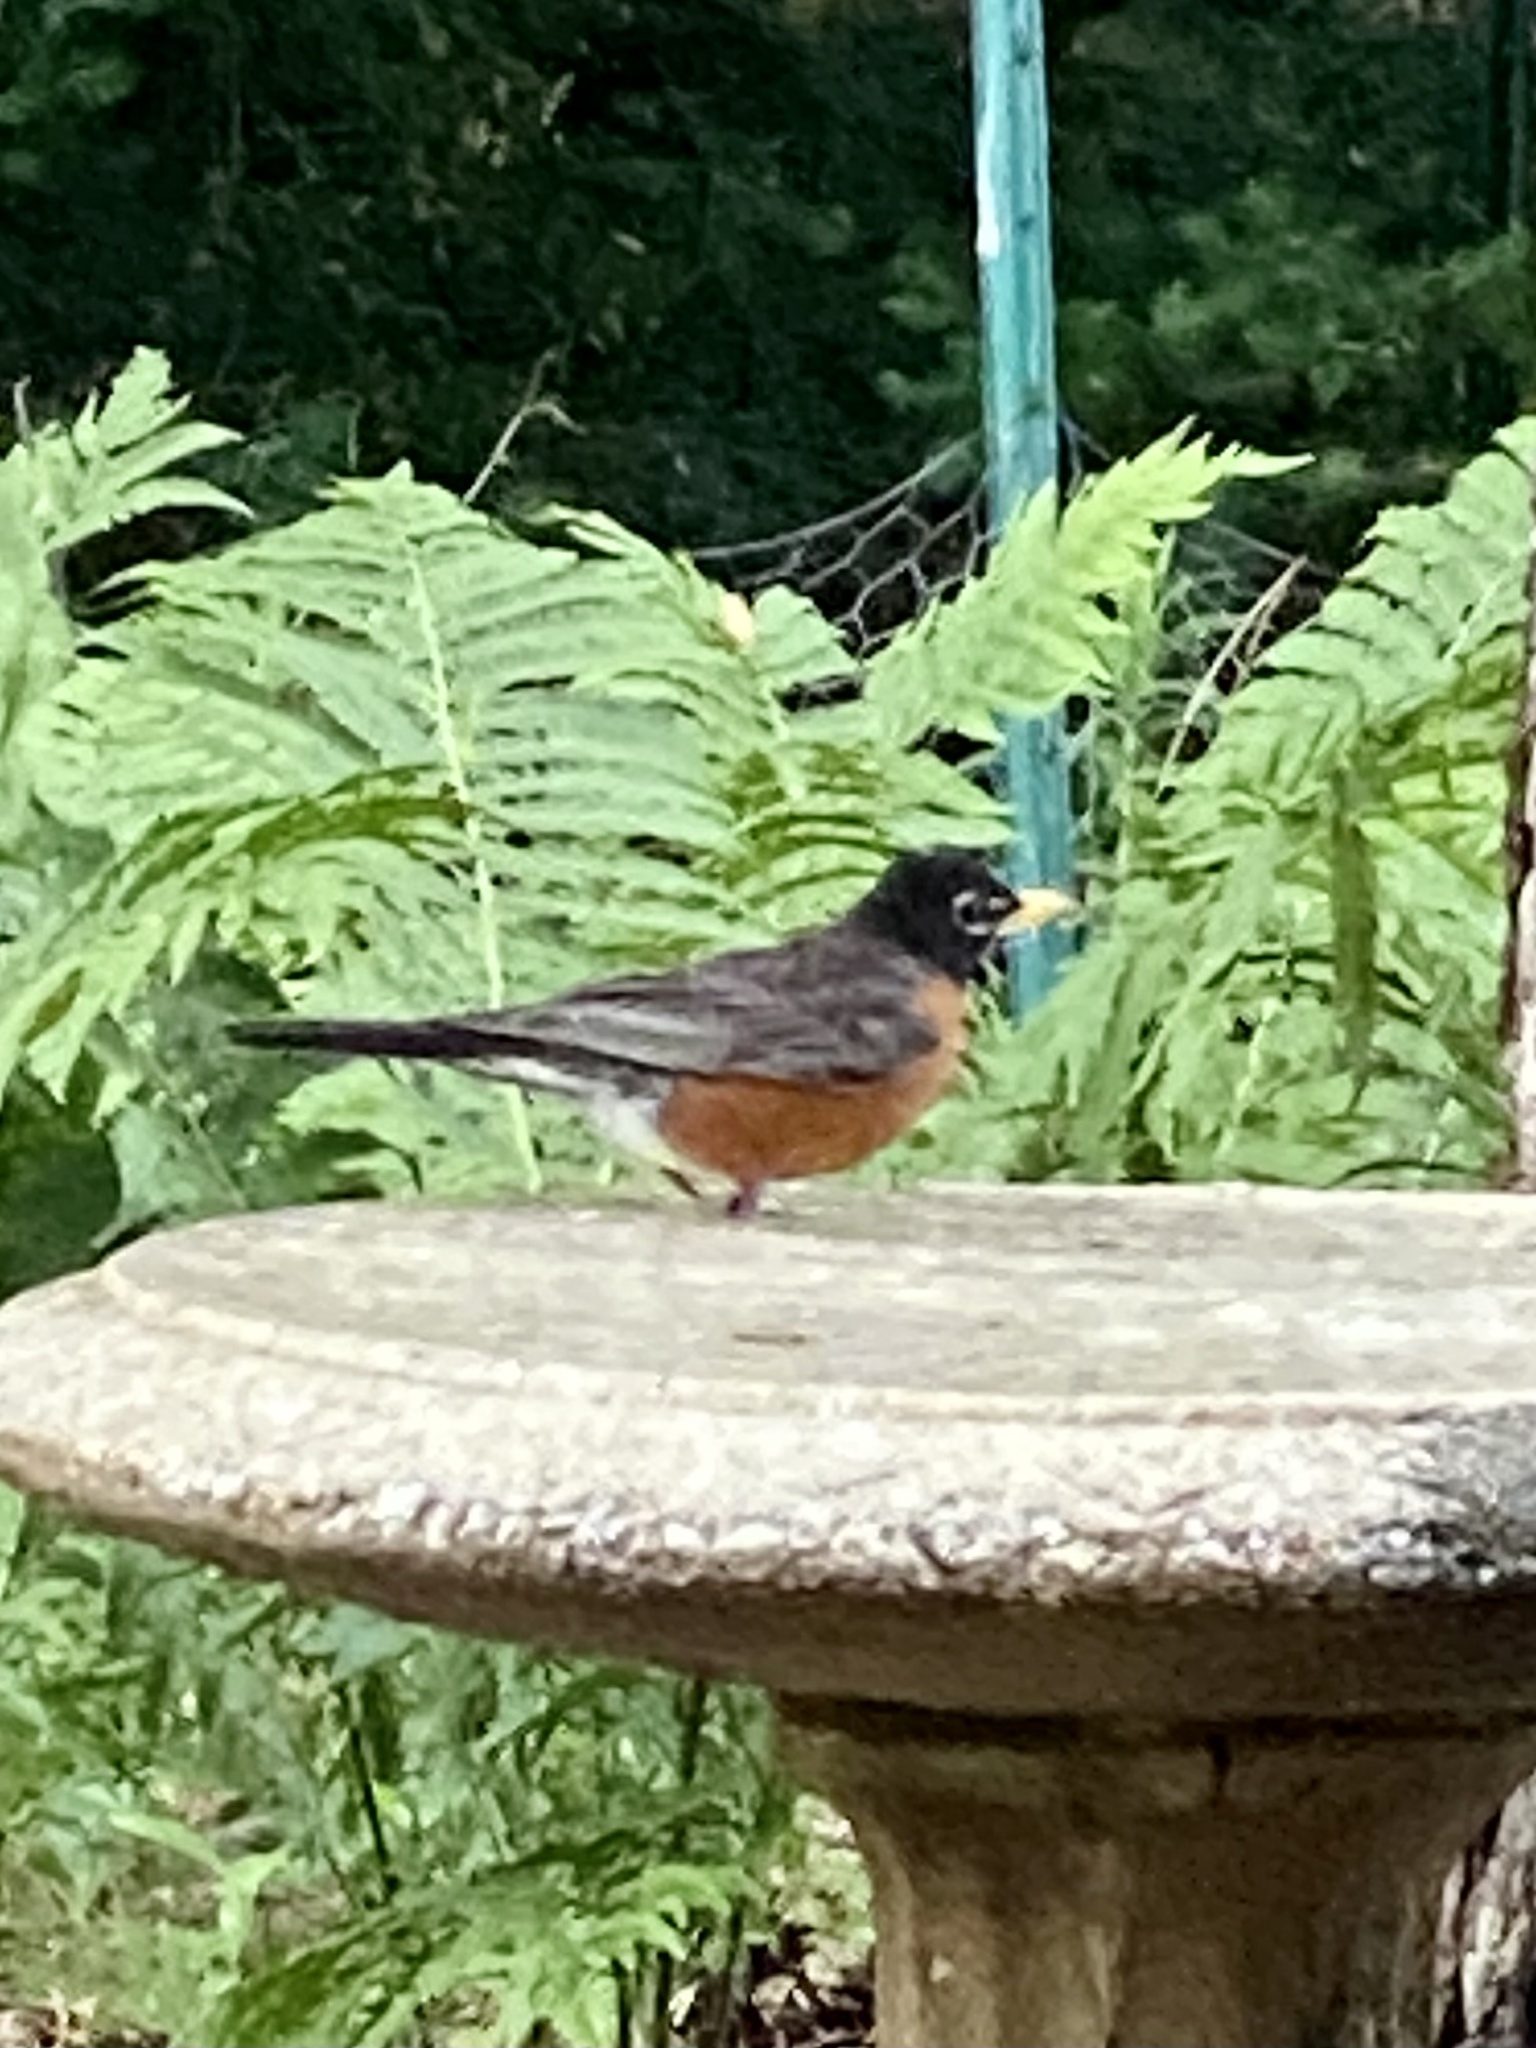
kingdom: Animalia
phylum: Chordata
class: Aves
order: Passeriformes
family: Turdidae
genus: Turdus
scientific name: Turdus migratorius
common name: American robin
